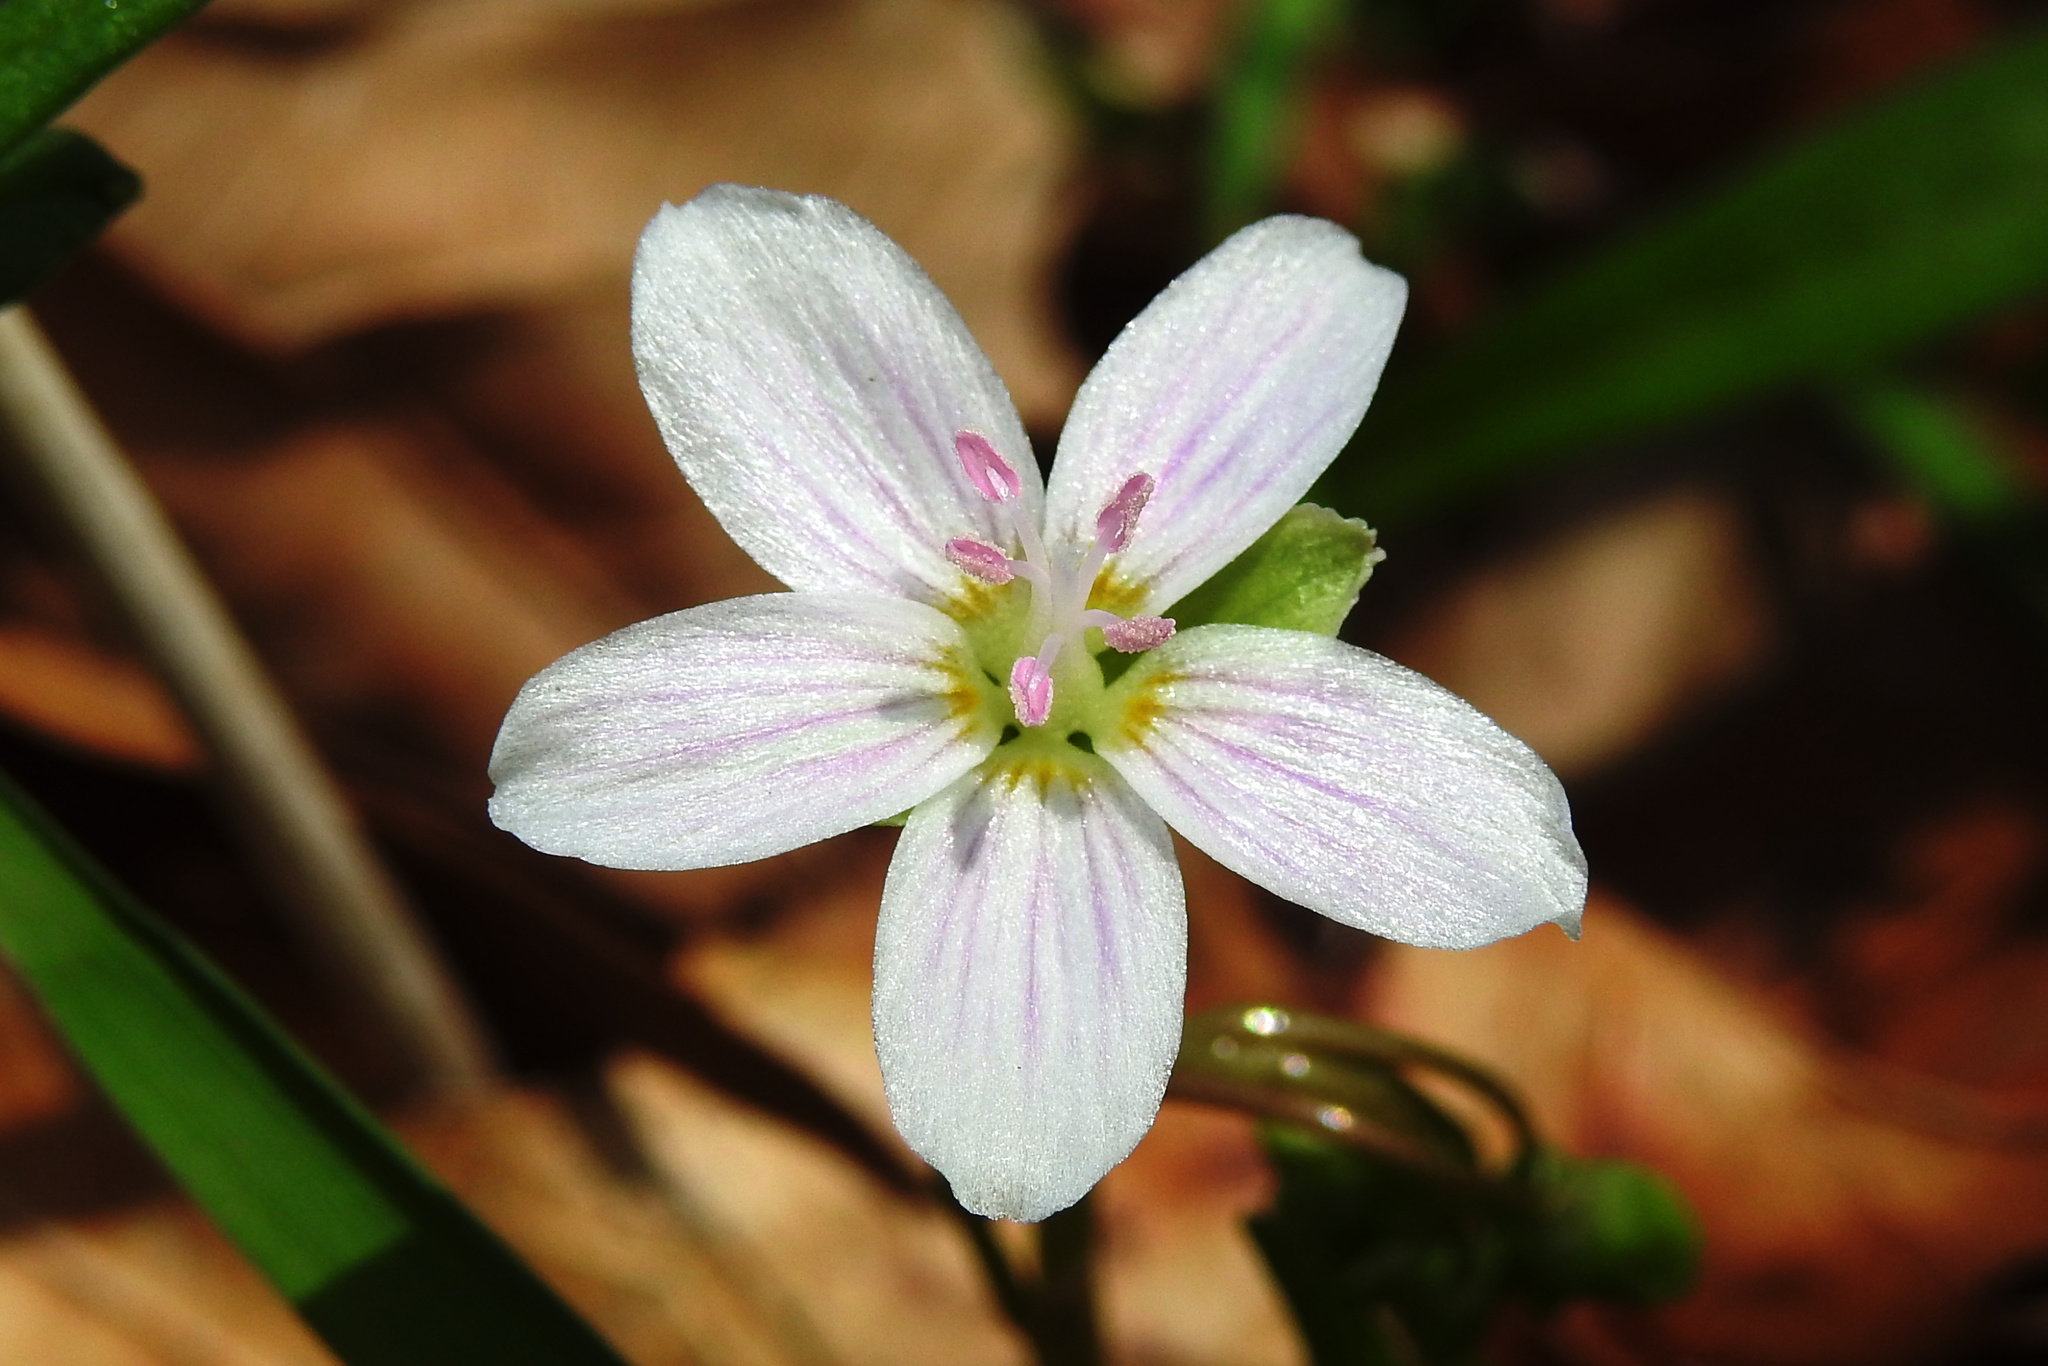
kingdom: Plantae
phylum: Tracheophyta
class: Magnoliopsida
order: Caryophyllales
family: Montiaceae
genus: Claytonia
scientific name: Claytonia virginica
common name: Virginia springbeauty
